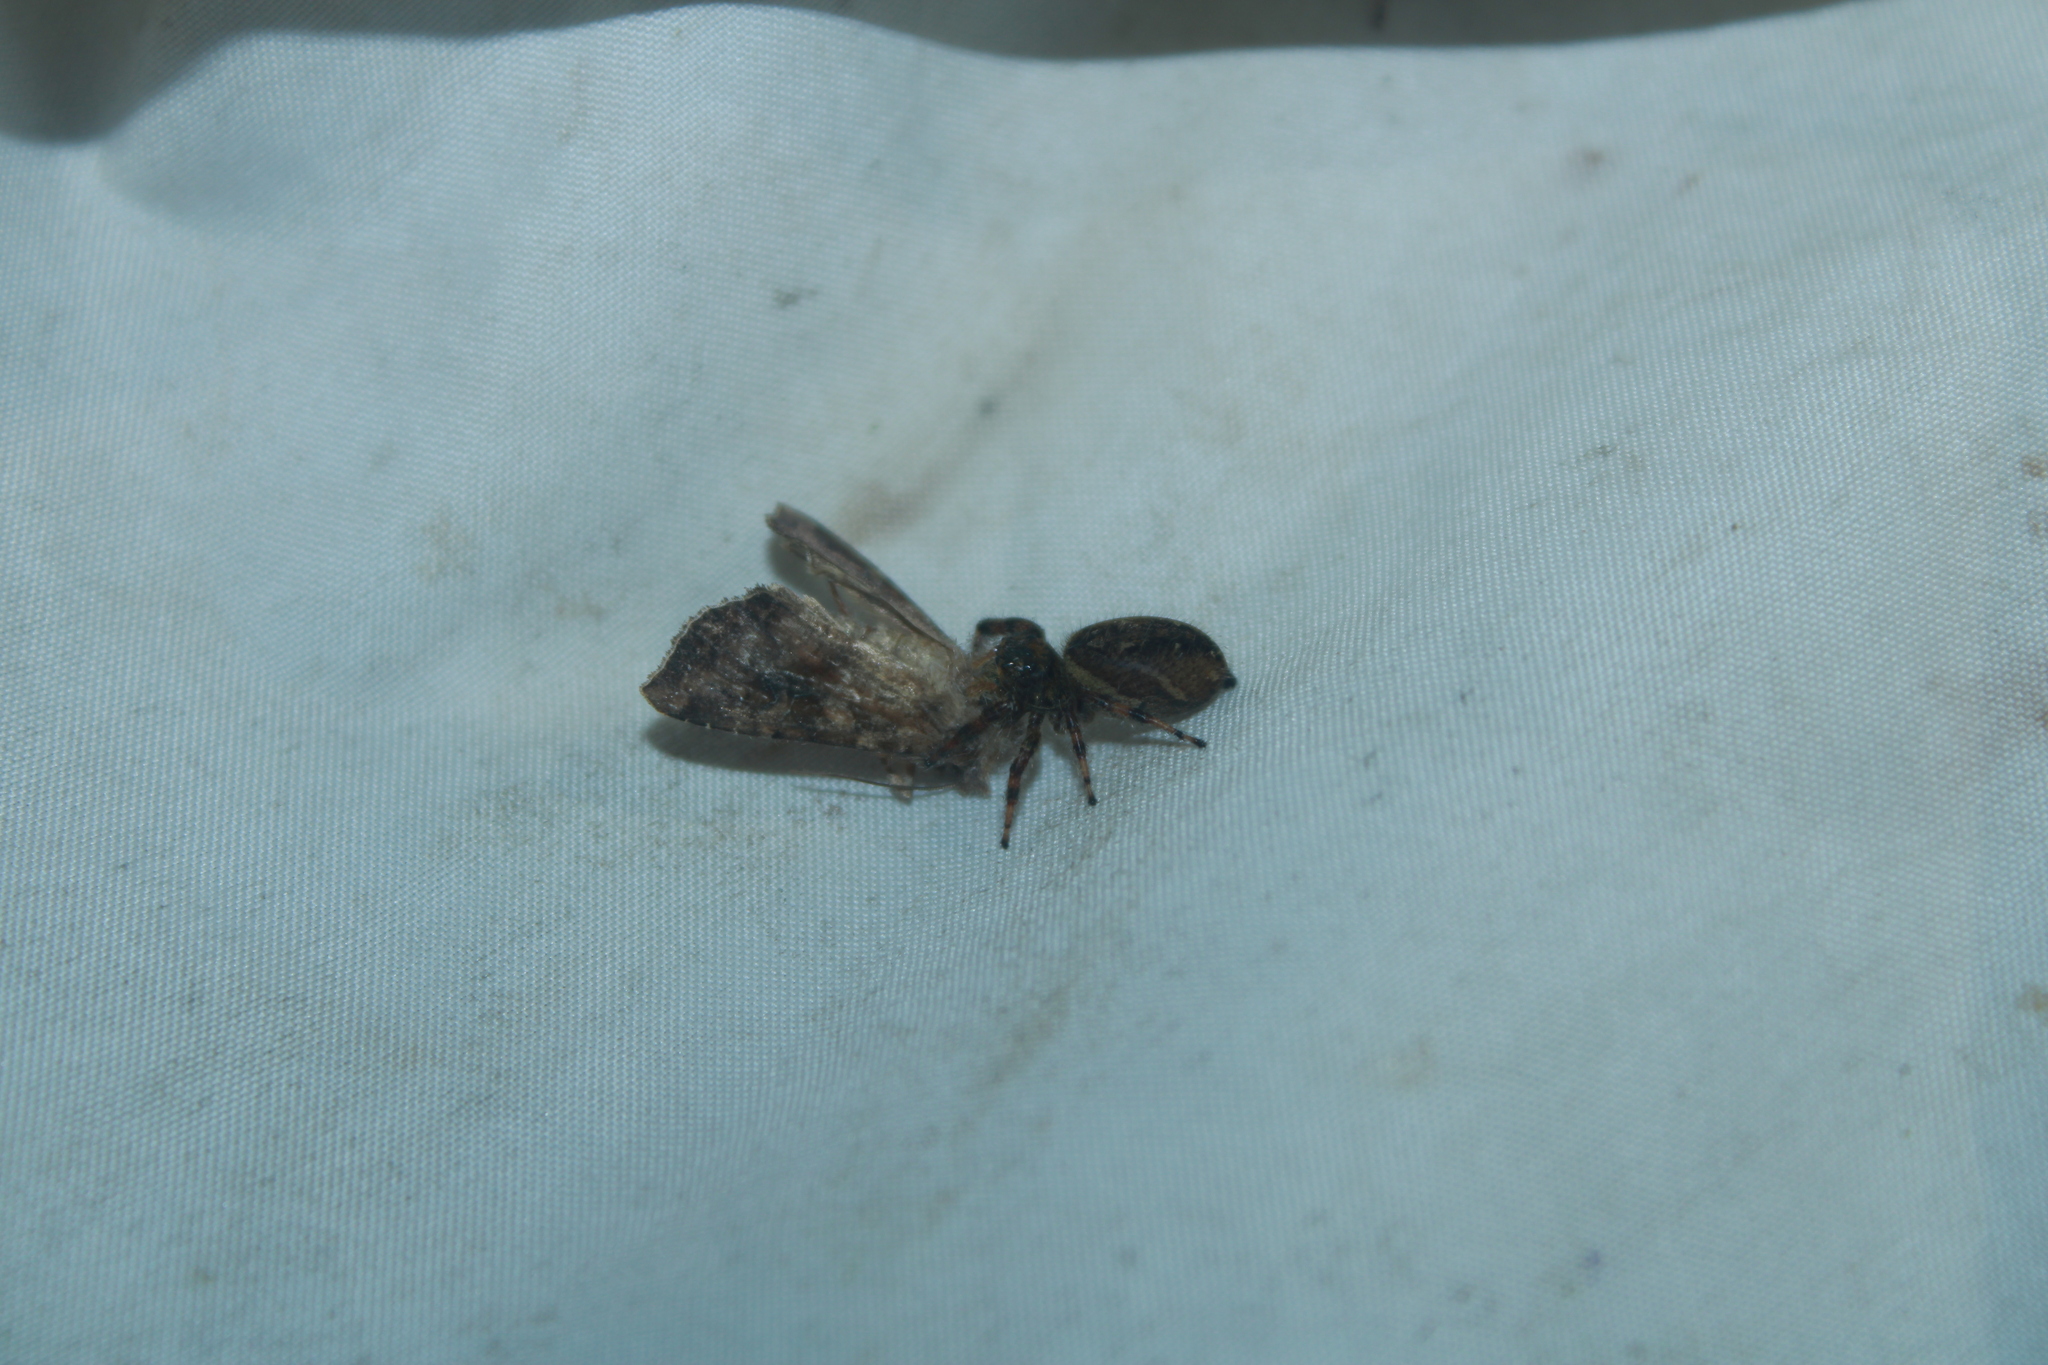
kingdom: Animalia
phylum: Arthropoda
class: Insecta
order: Lepidoptera
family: Noctuidae
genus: Loscopia
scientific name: Loscopia velata
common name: Veiled ear moth
